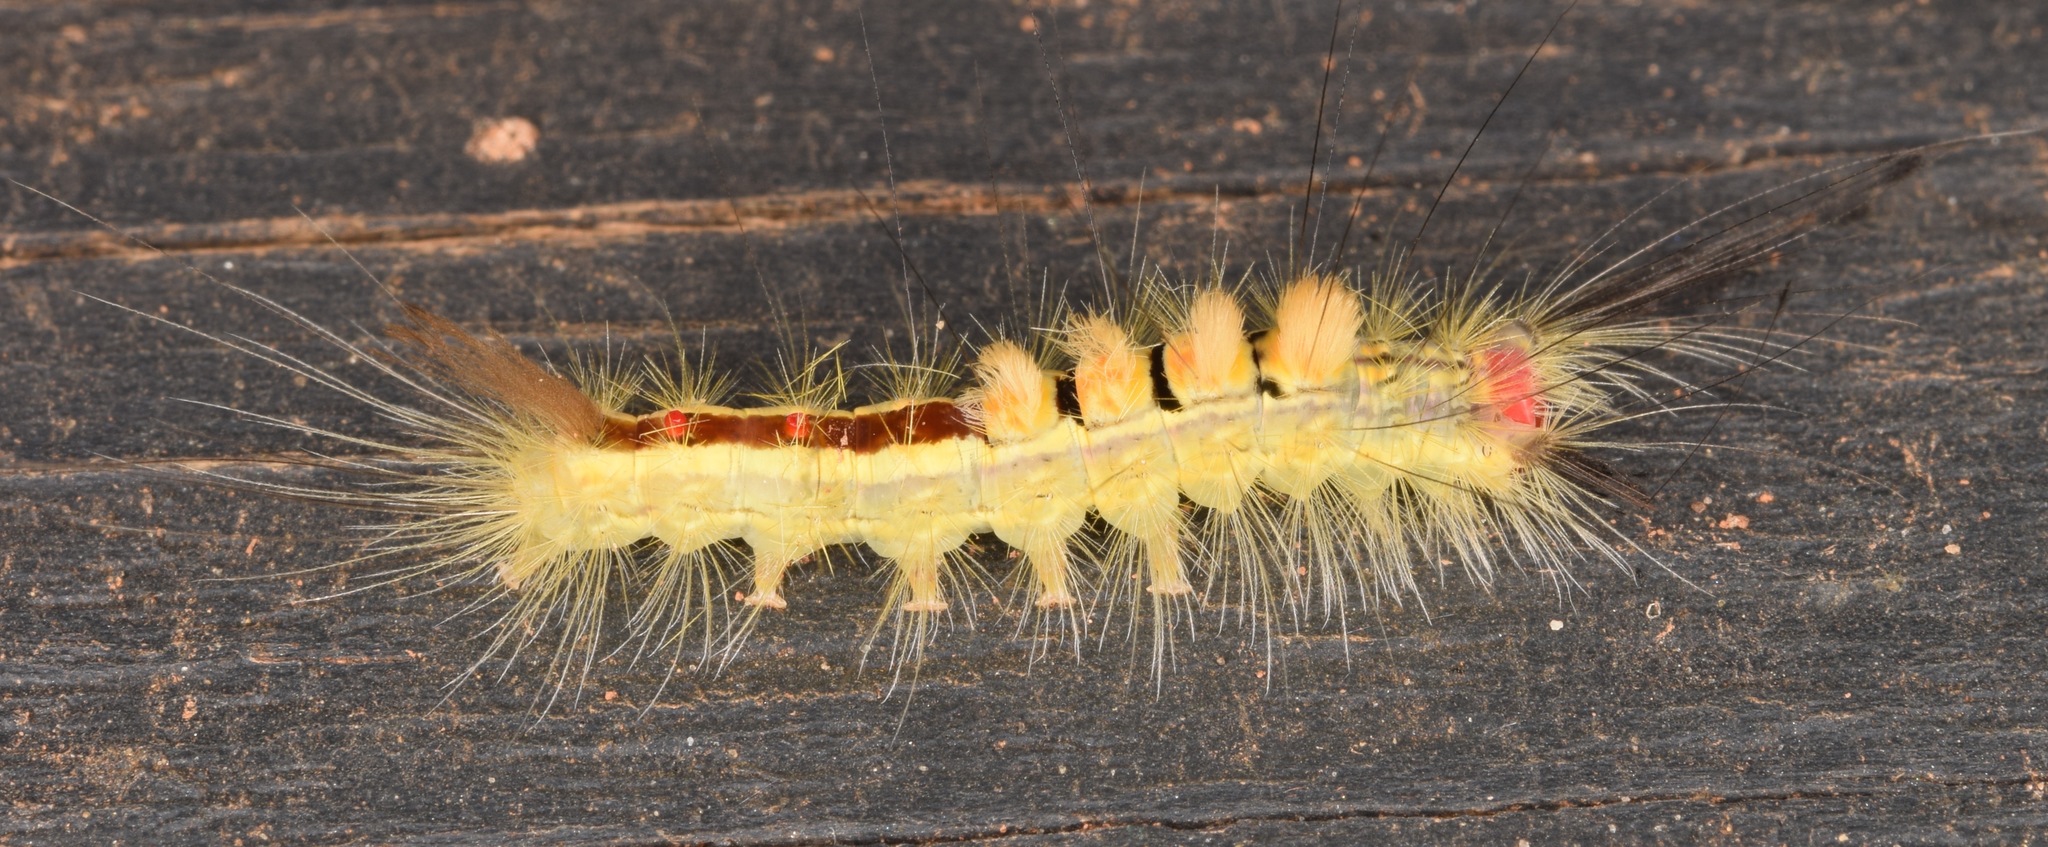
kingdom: Animalia
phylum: Arthropoda
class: Insecta
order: Lepidoptera
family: Erebidae
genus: Orgyia
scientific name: Orgyia leucostigma
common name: White-marked tussock moth
